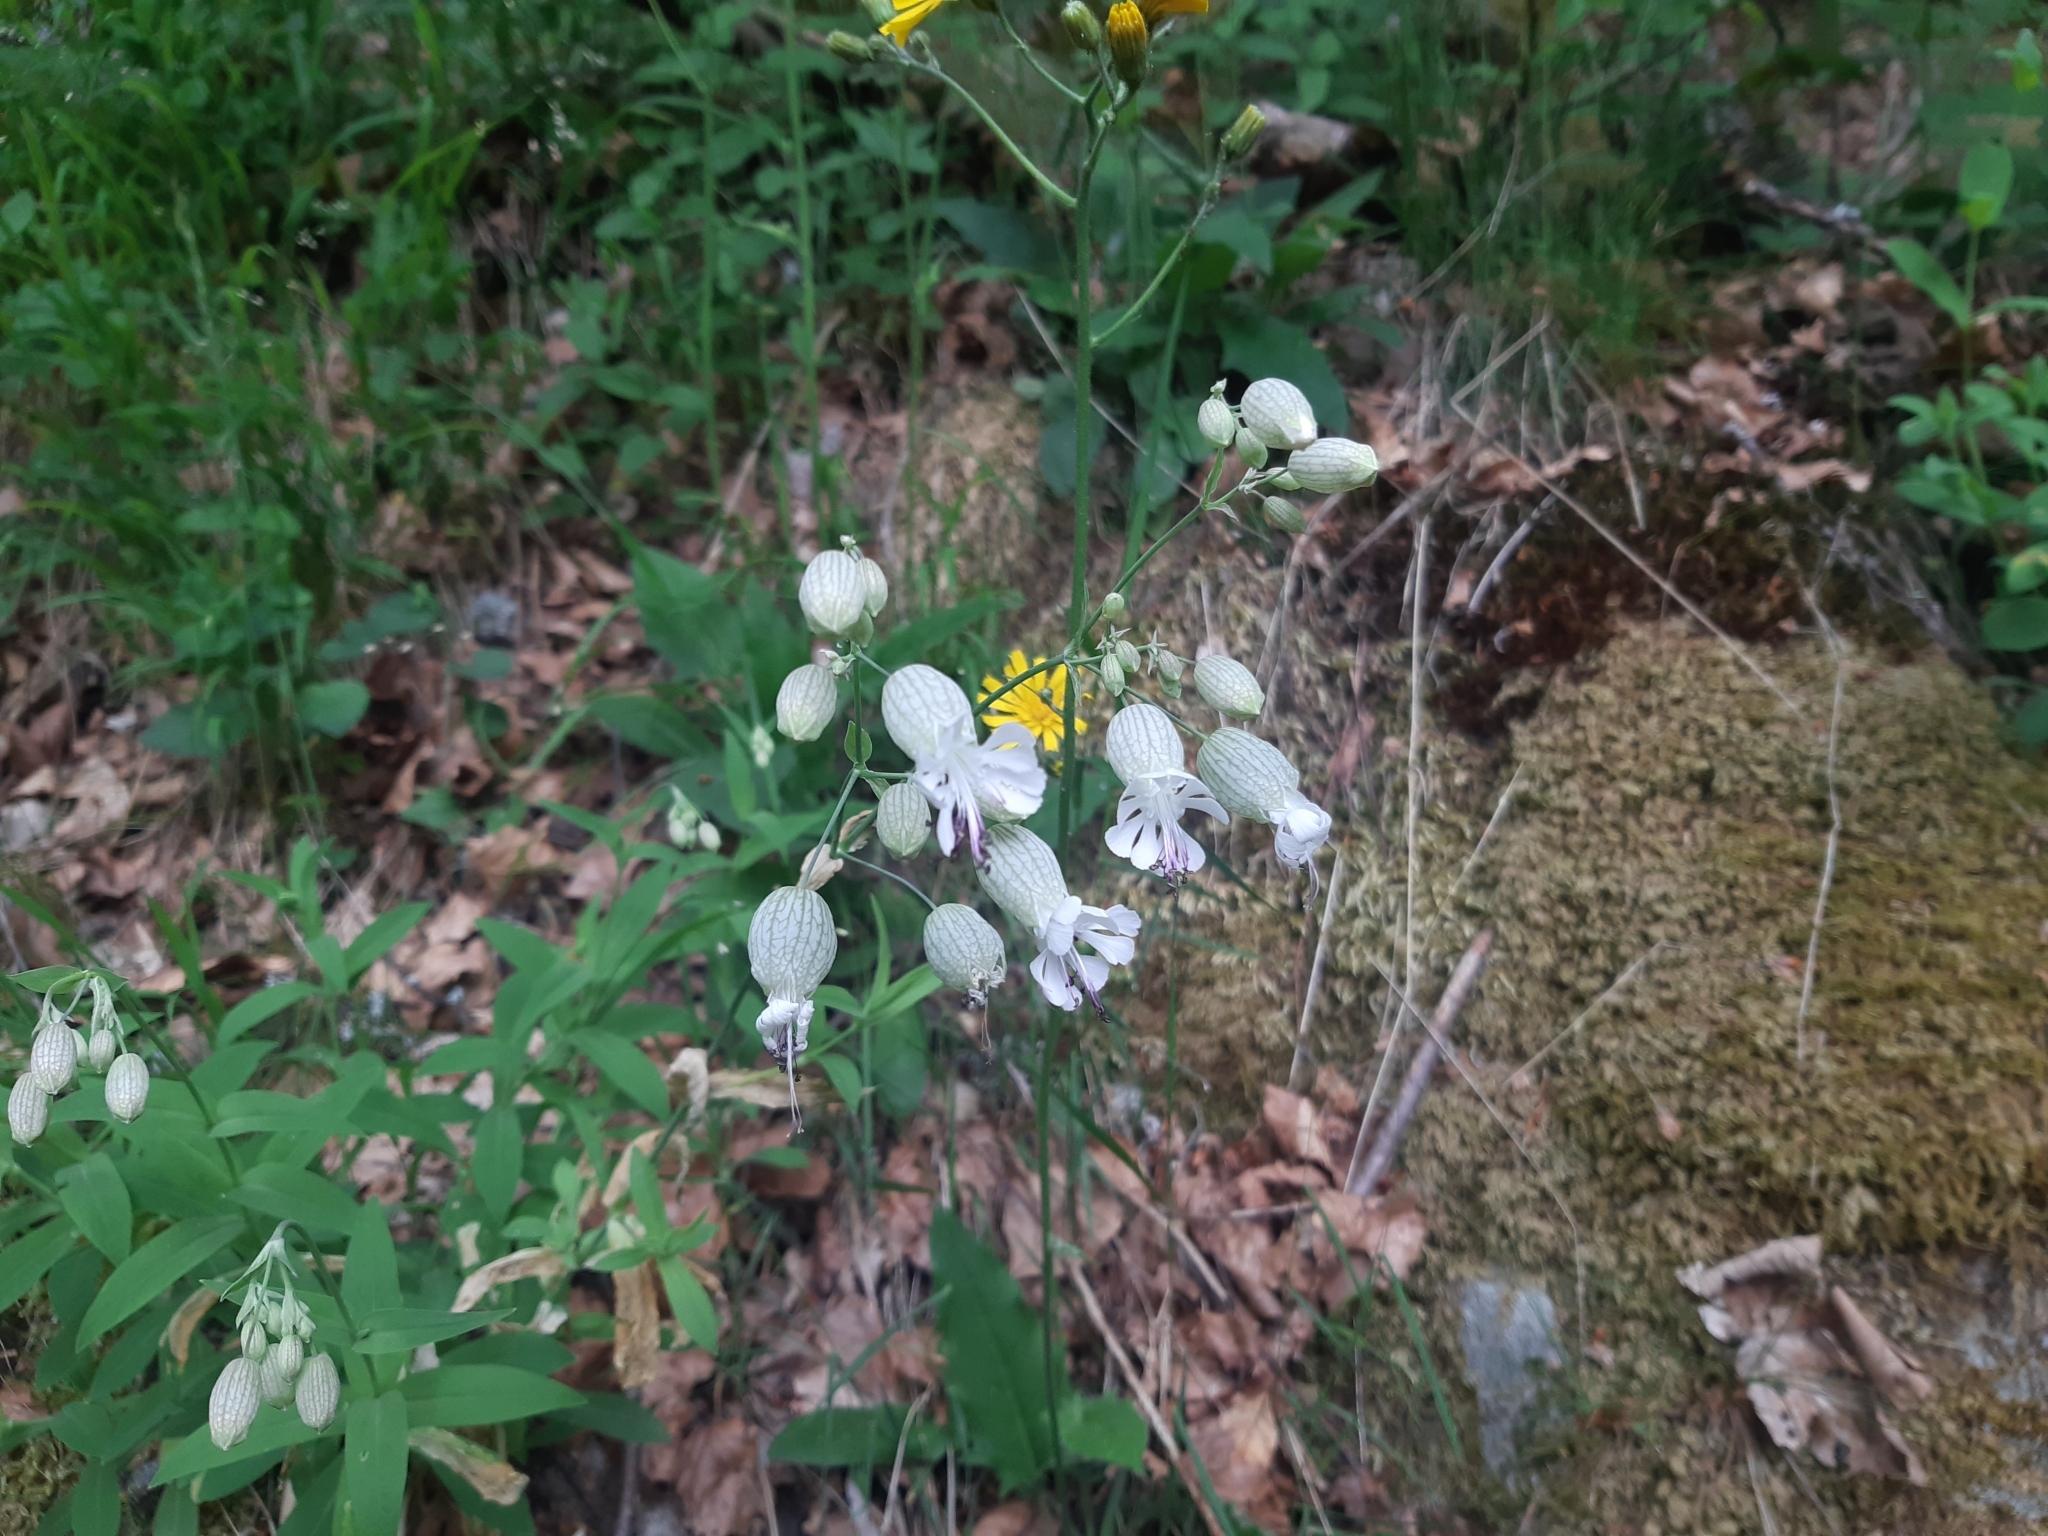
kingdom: Plantae
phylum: Tracheophyta
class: Magnoliopsida
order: Caryophyllales
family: Caryophyllaceae
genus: Silene
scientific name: Silene vulgaris
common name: Bladder campion
